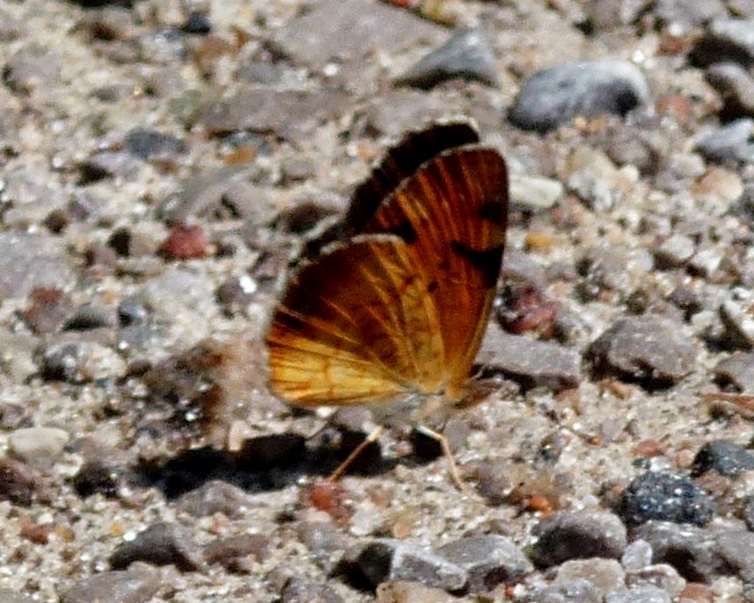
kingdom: Animalia
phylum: Arthropoda
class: Insecta
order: Lepidoptera
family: Nymphalidae
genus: Phyciodes
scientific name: Phyciodes tharos
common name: Pearl crescent
